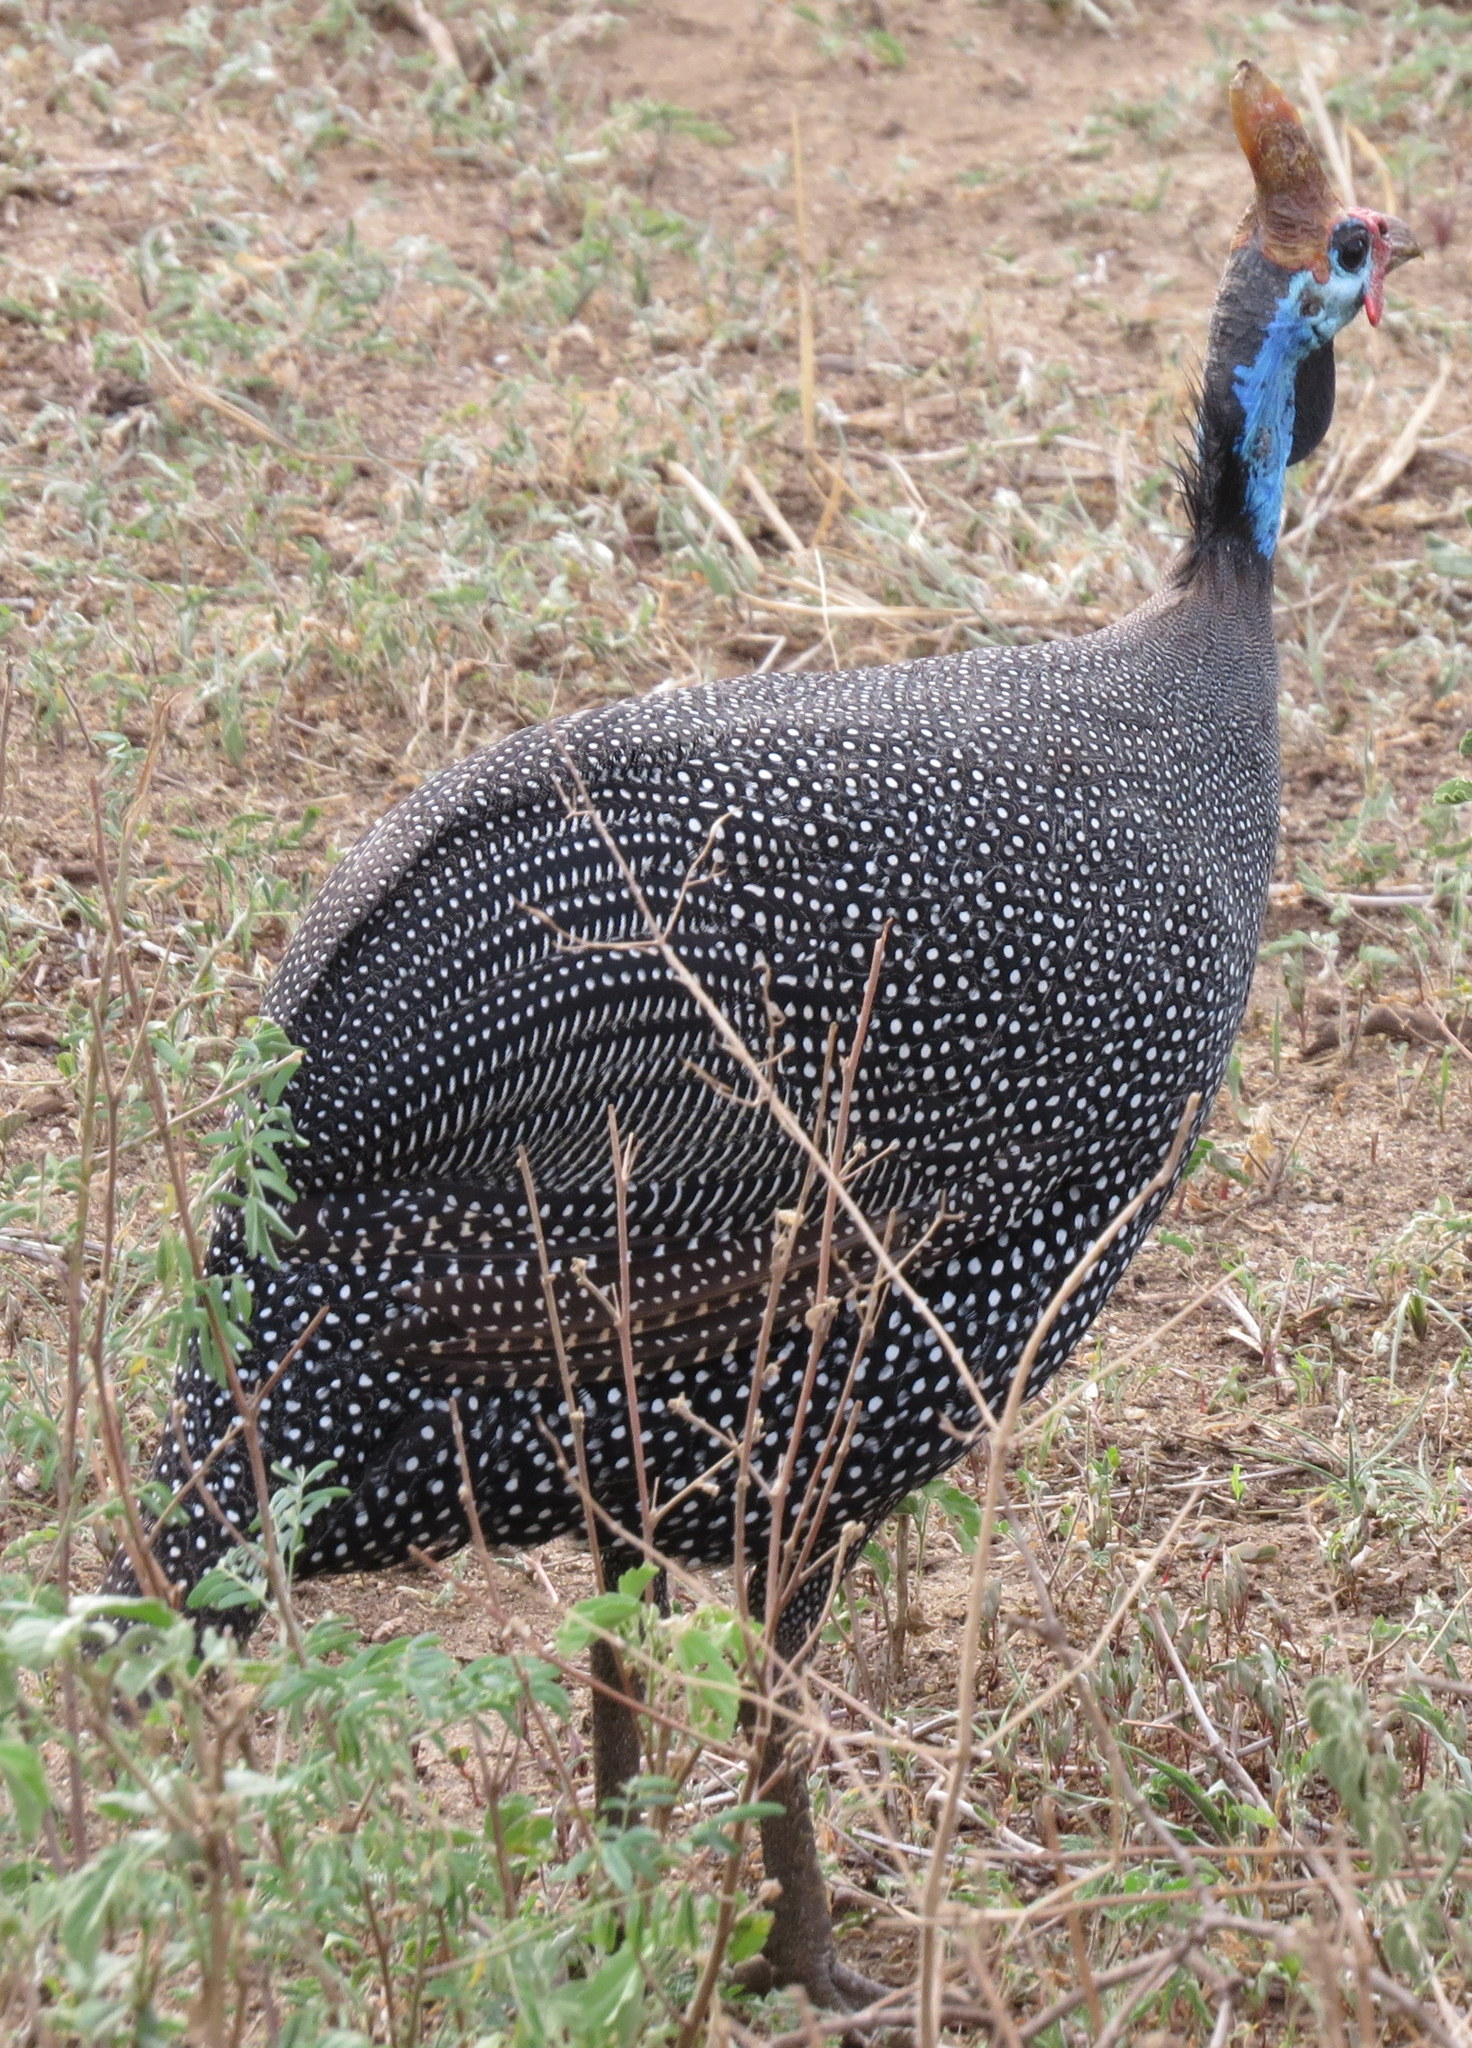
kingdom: Animalia
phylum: Chordata
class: Aves
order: Galliformes
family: Numididae
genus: Numida
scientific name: Numida meleagris
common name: Helmeted guineafowl
